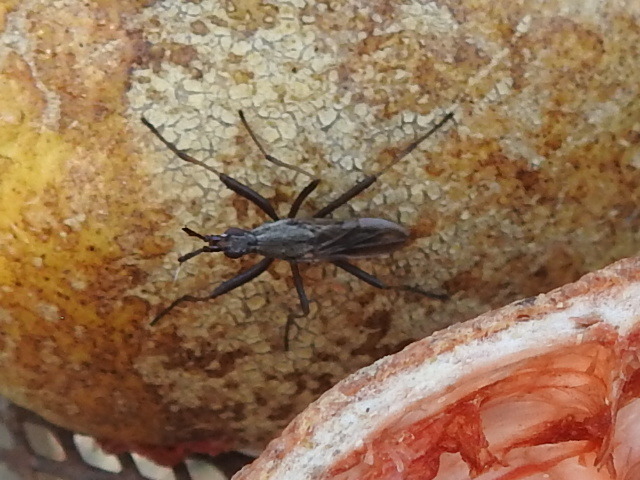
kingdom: Animalia
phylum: Arthropoda
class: Insecta
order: Diptera
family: Neriidae
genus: Odontoloxozus
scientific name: Odontoloxozus longicornis
